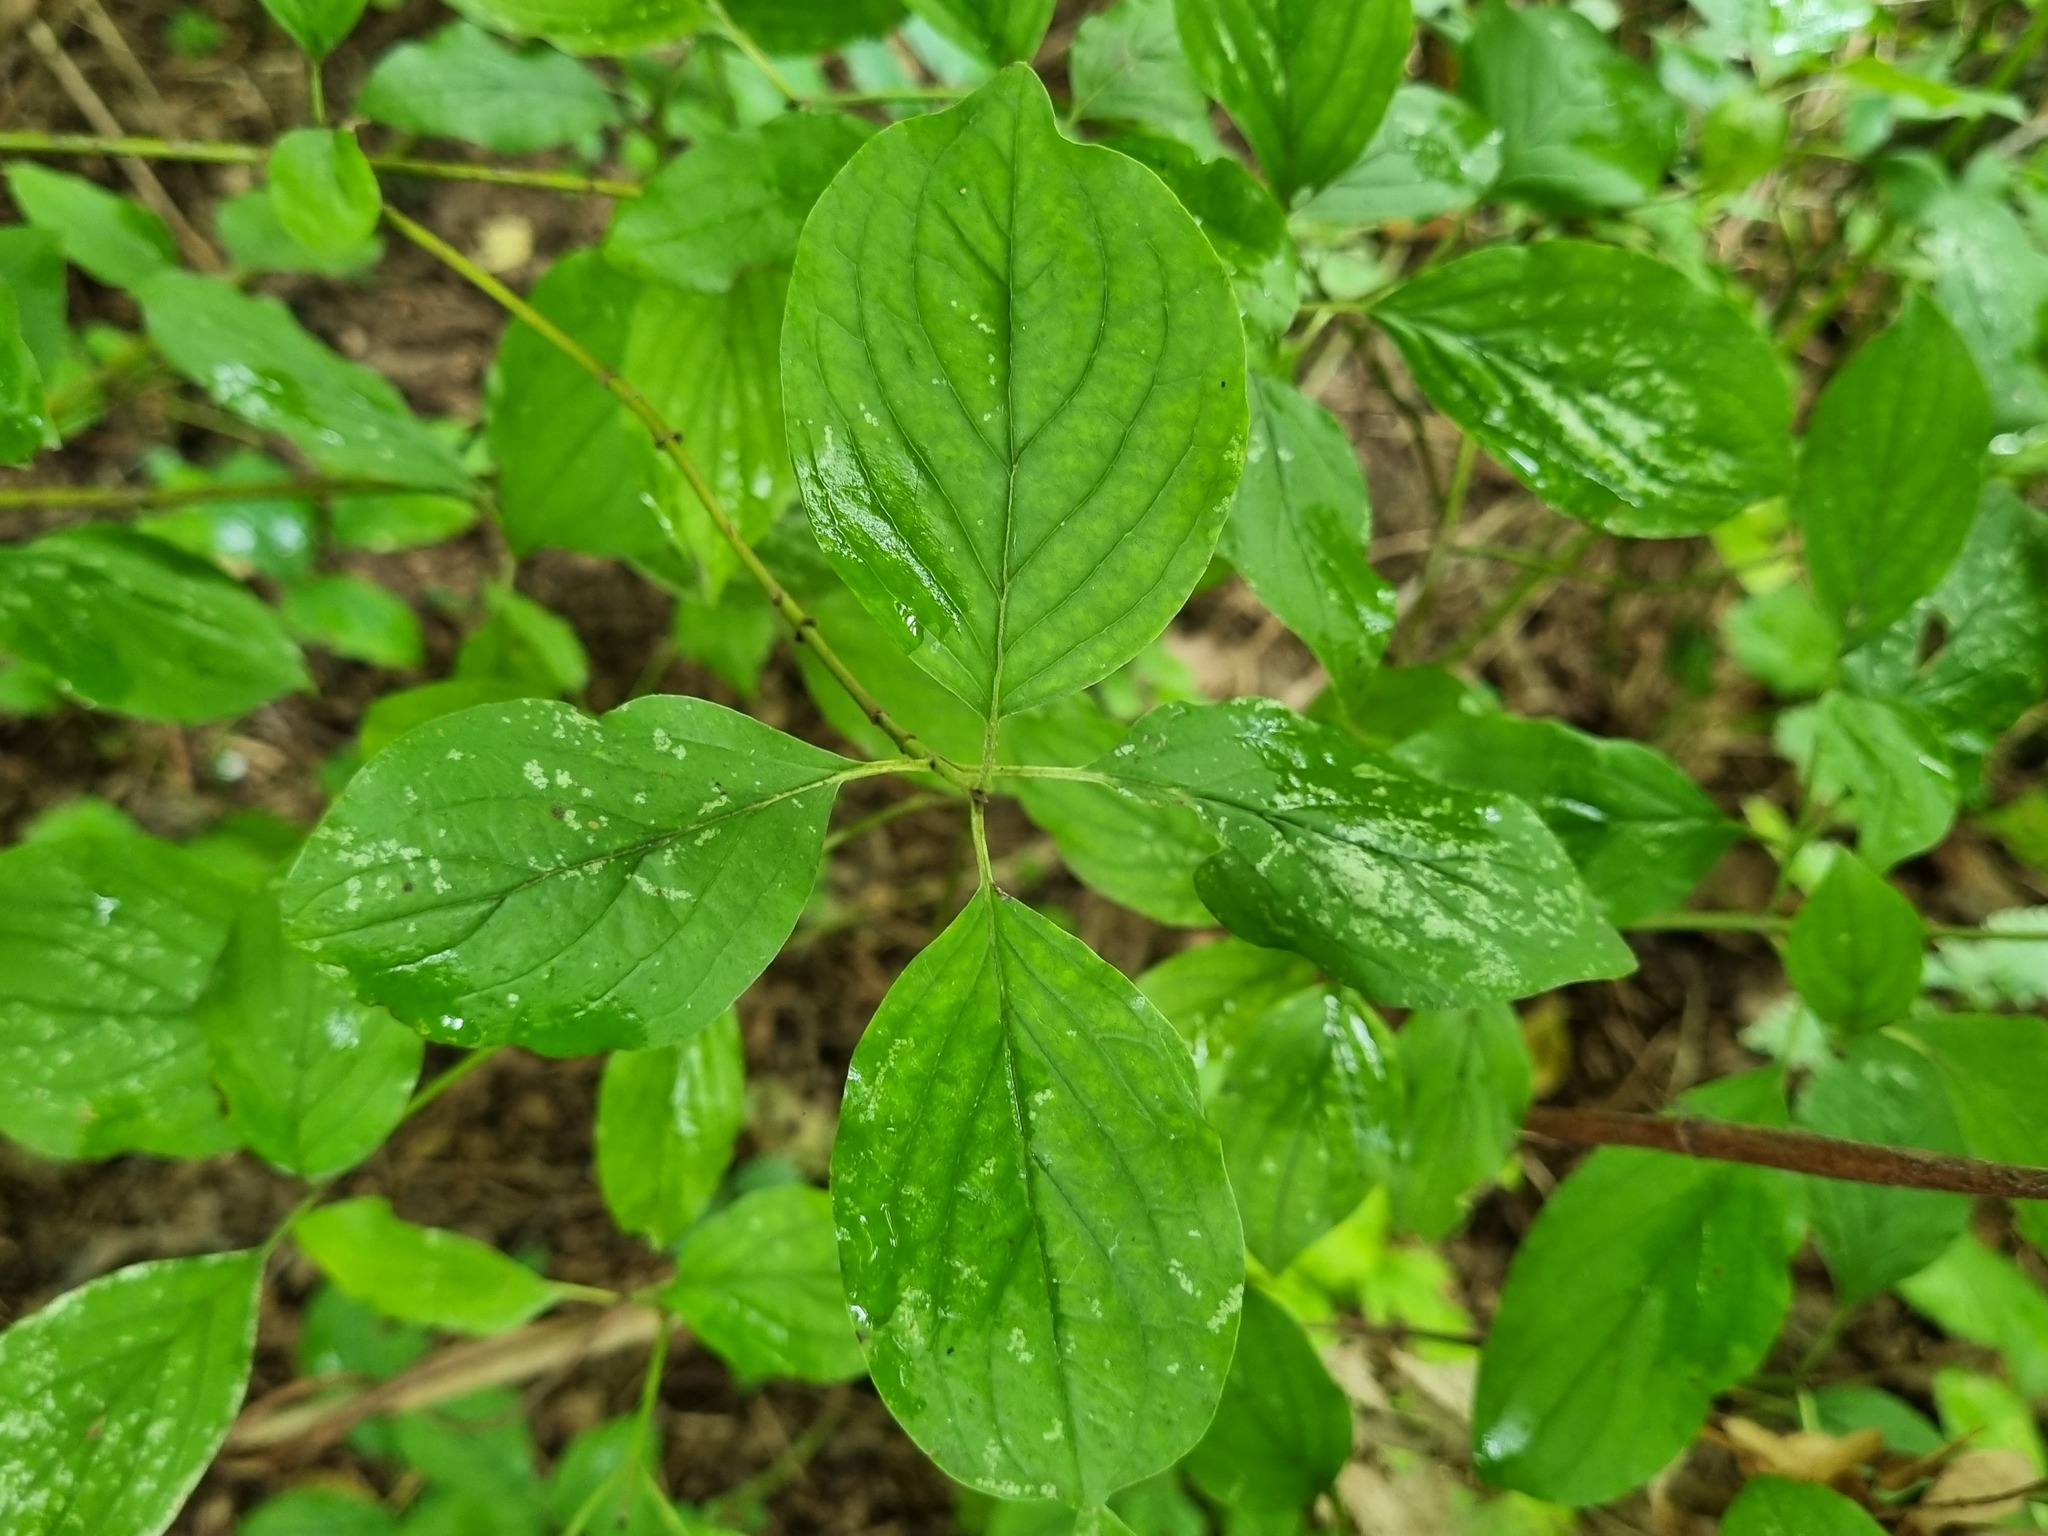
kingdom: Plantae
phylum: Tracheophyta
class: Magnoliopsida
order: Cornales
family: Cornaceae
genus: Cornus
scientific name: Cornus sanguinea
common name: Dogwood
